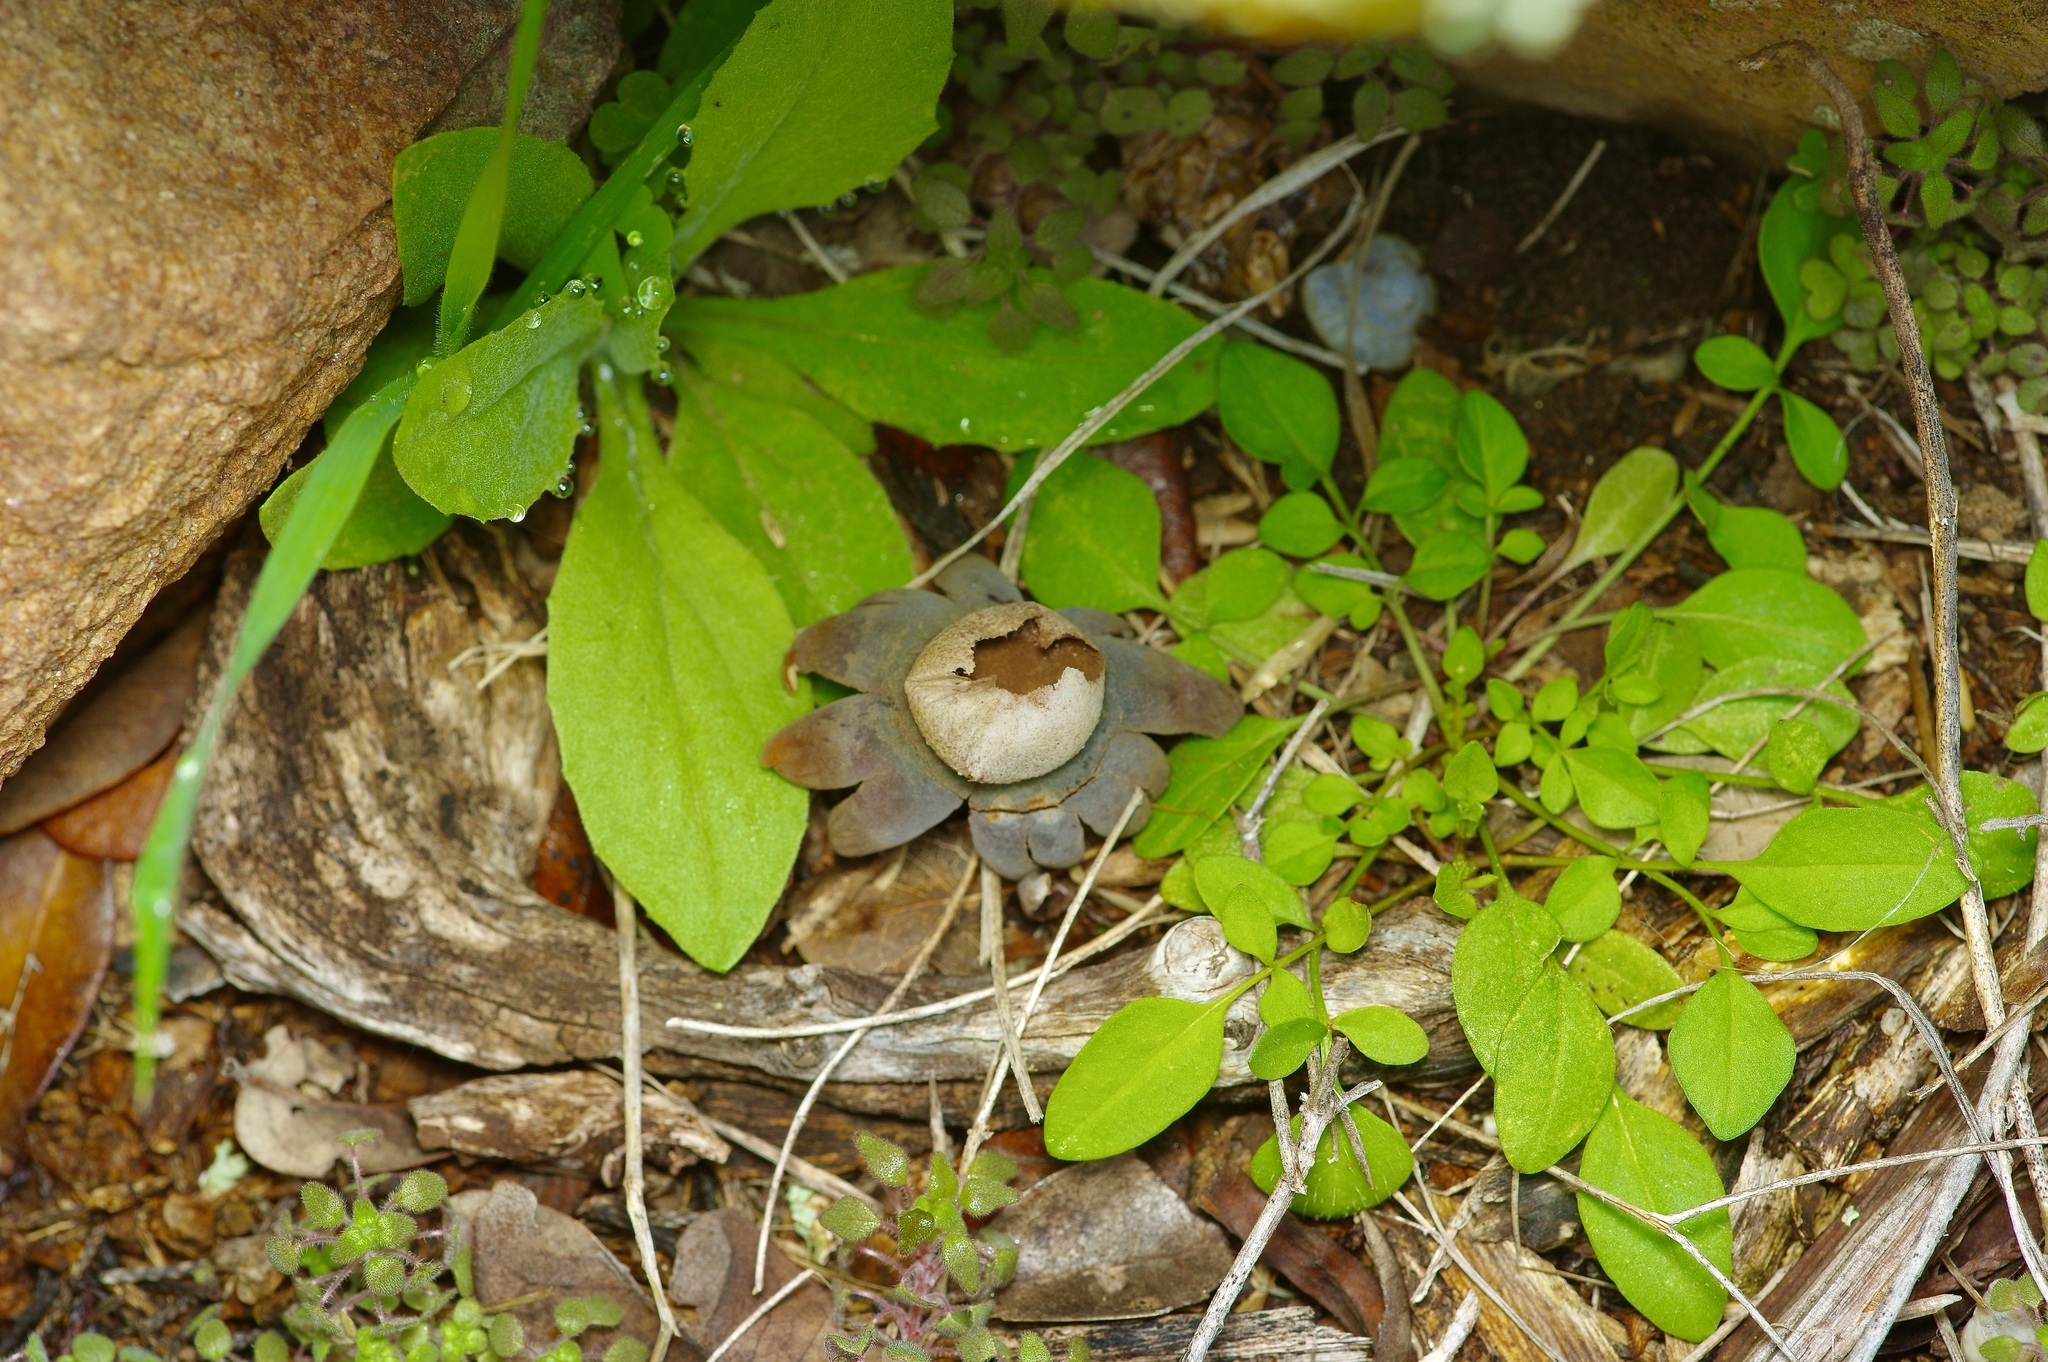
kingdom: Fungi
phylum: Basidiomycota
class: Agaricomycetes
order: Boletales
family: Diplocystidiaceae
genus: Astraeus
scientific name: Astraeus morganii
